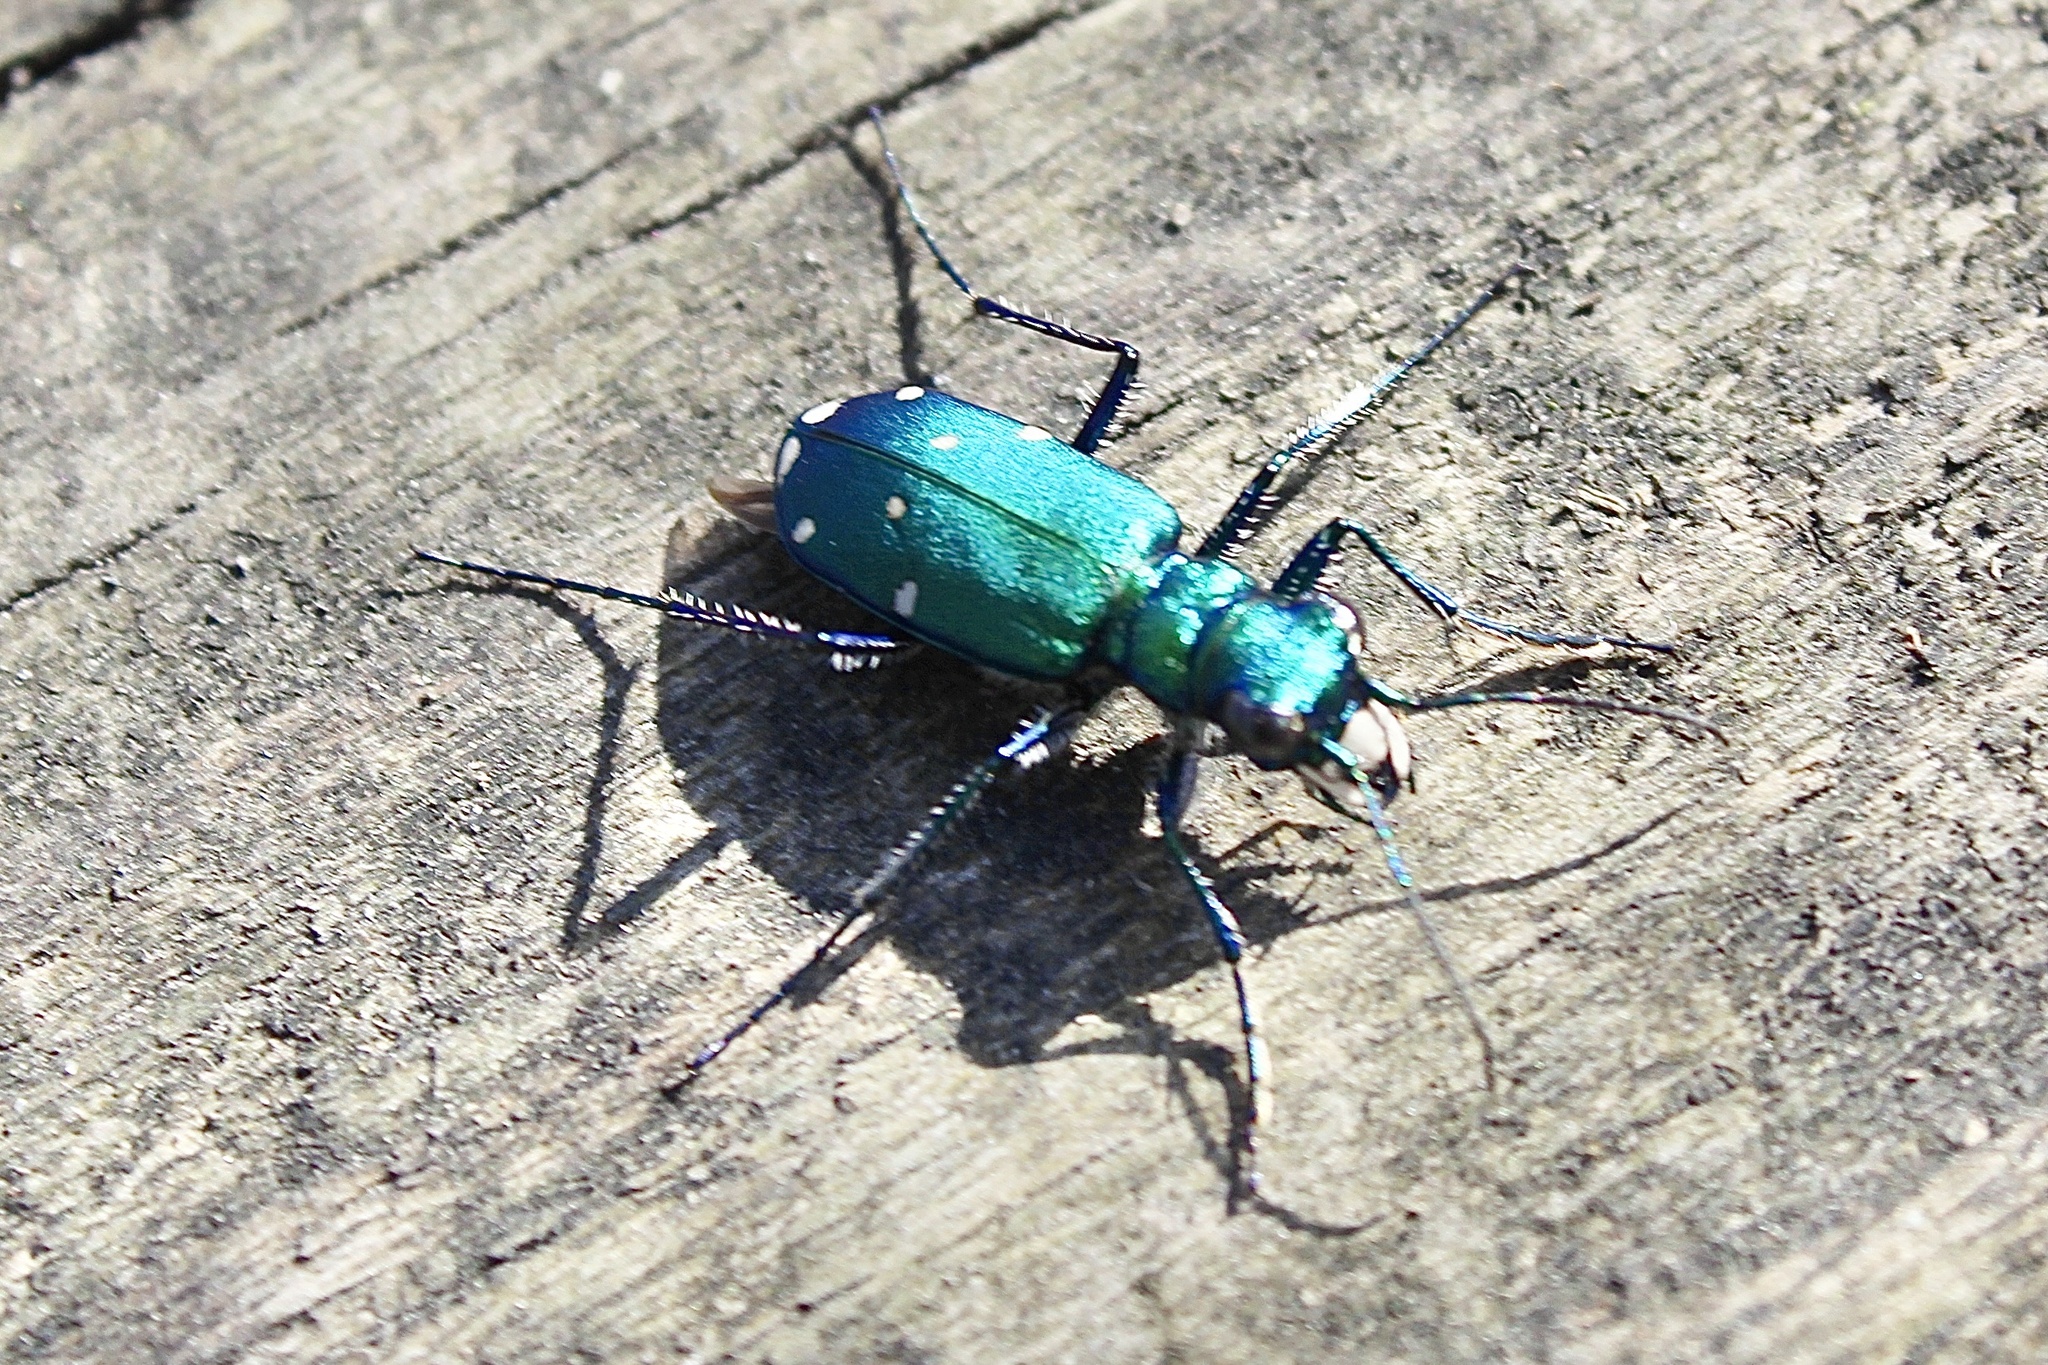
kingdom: Animalia
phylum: Arthropoda
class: Insecta
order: Coleoptera
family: Carabidae
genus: Cicindela
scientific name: Cicindela sexguttata
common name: Six-spotted tiger beetle
